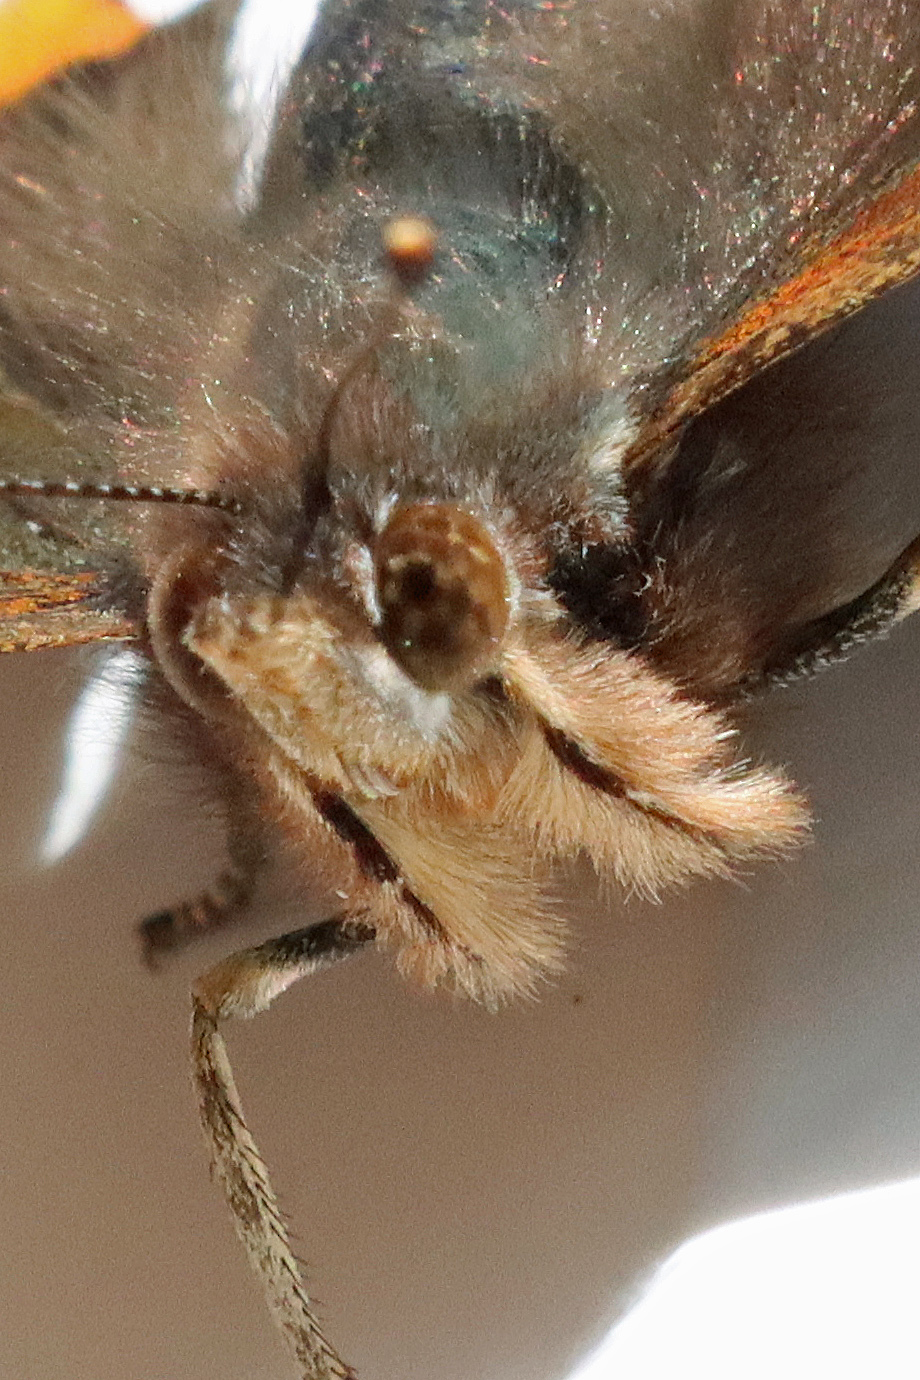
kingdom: Animalia
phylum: Arthropoda
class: Insecta
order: Lepidoptera
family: Nymphalidae
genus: Vanessa
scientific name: Vanessa atalanta
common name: Red admiral
